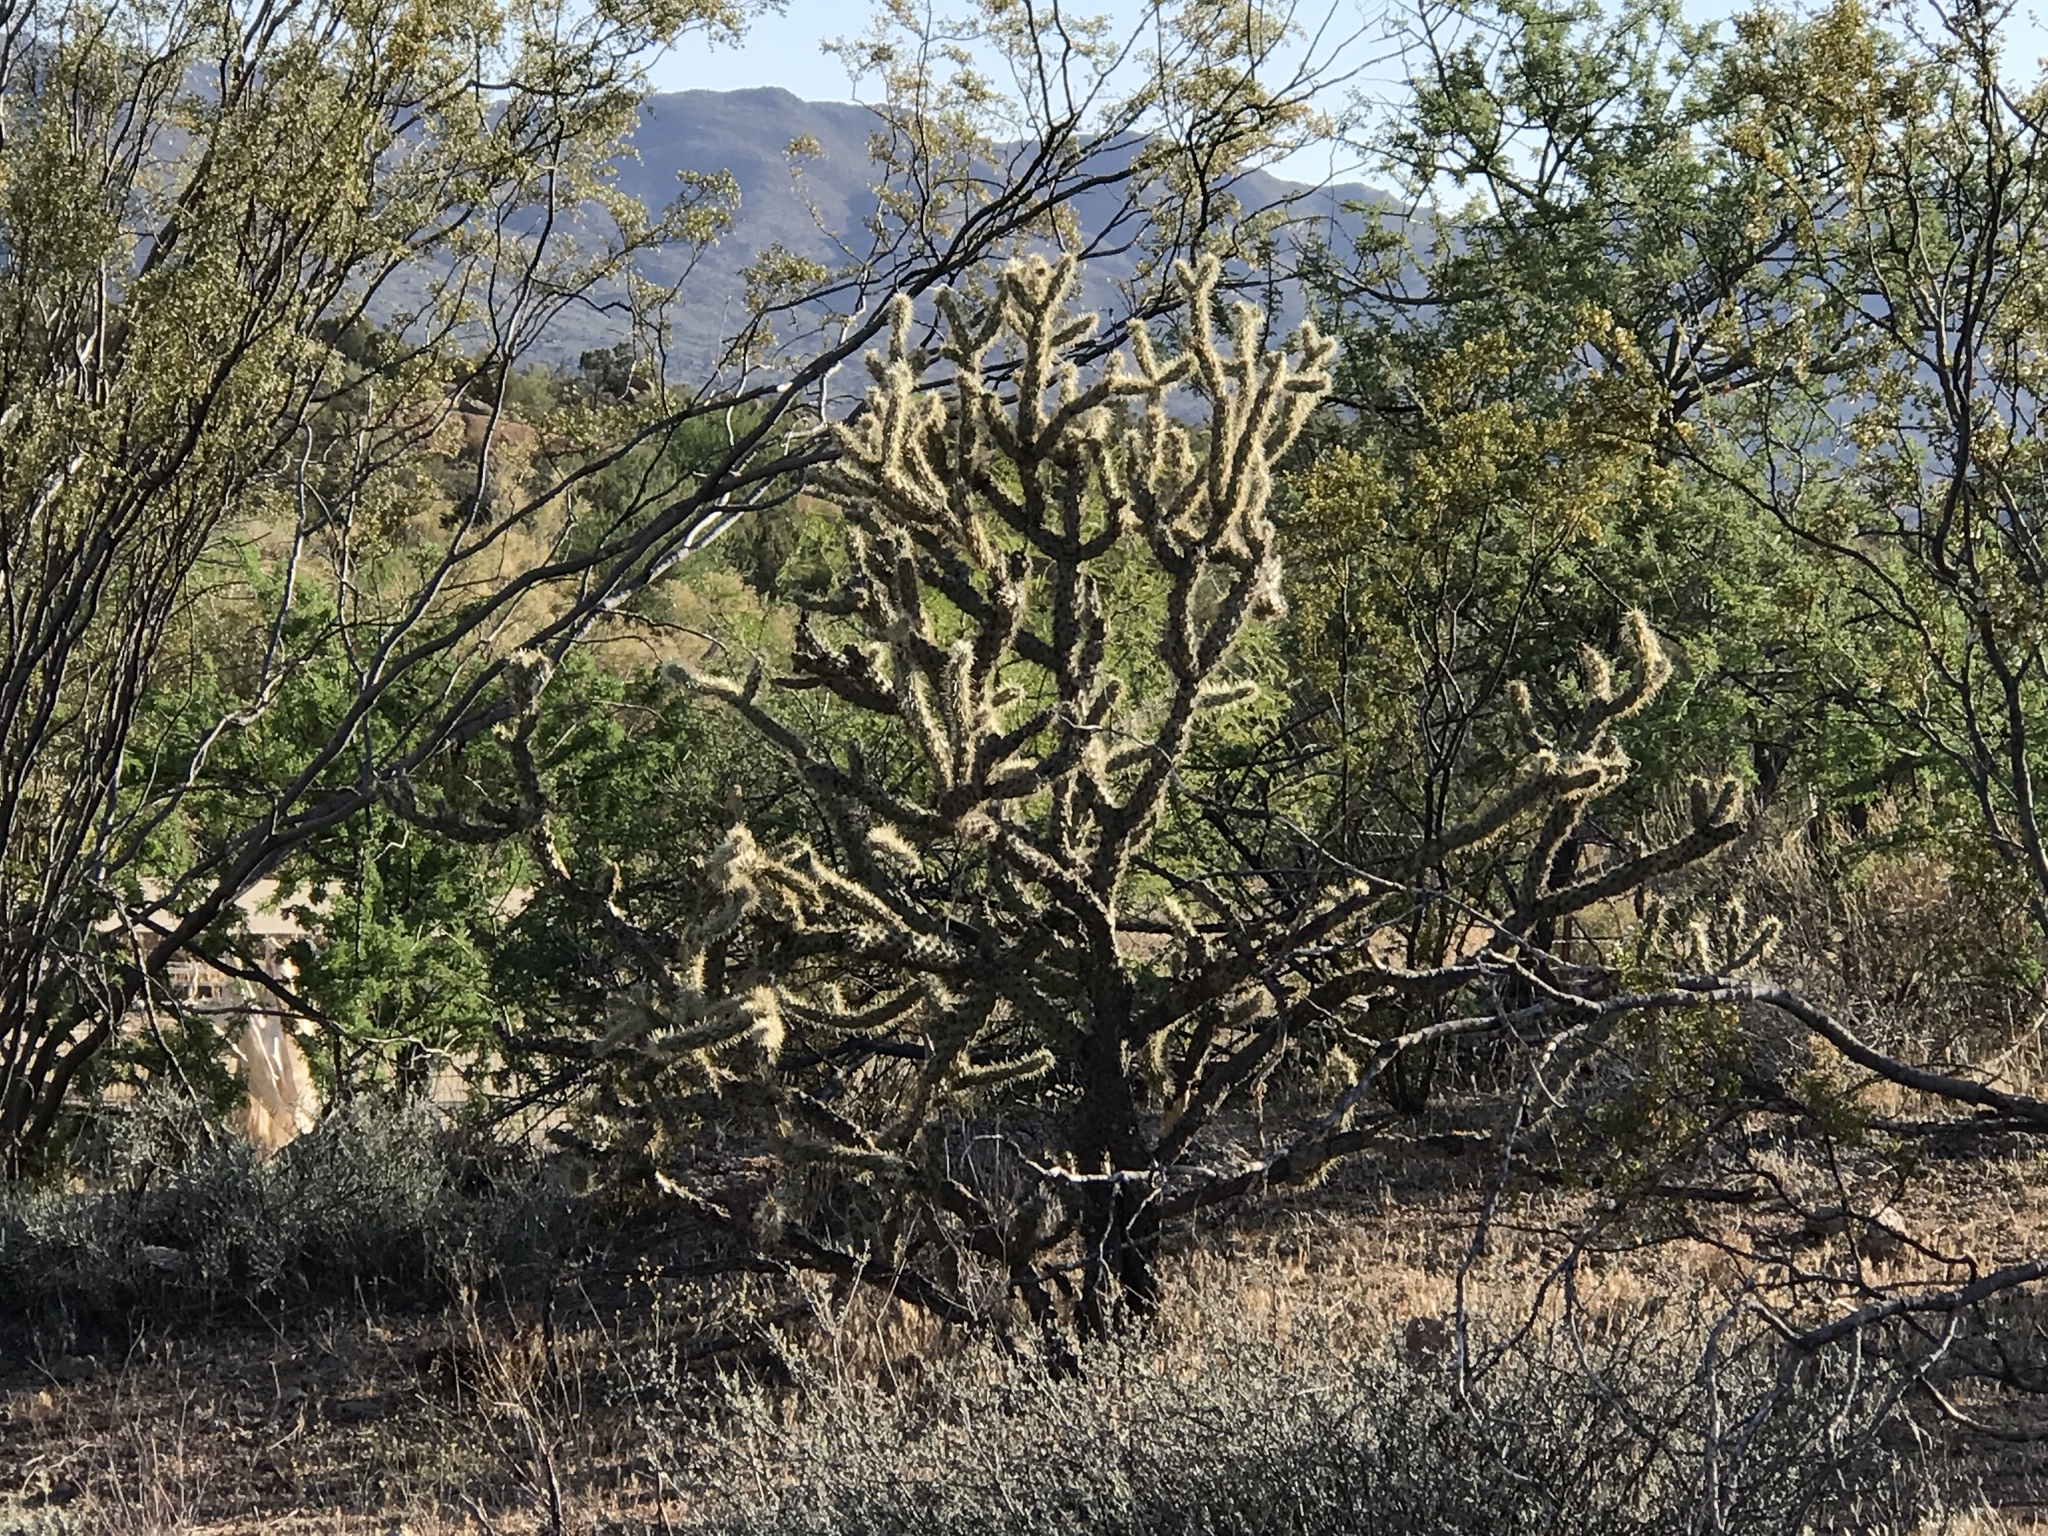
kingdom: Plantae
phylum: Tracheophyta
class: Magnoliopsida
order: Caryophyllales
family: Cactaceae
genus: Cylindropuntia
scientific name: Cylindropuntia acanthocarpa
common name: Buckhorn cholla
